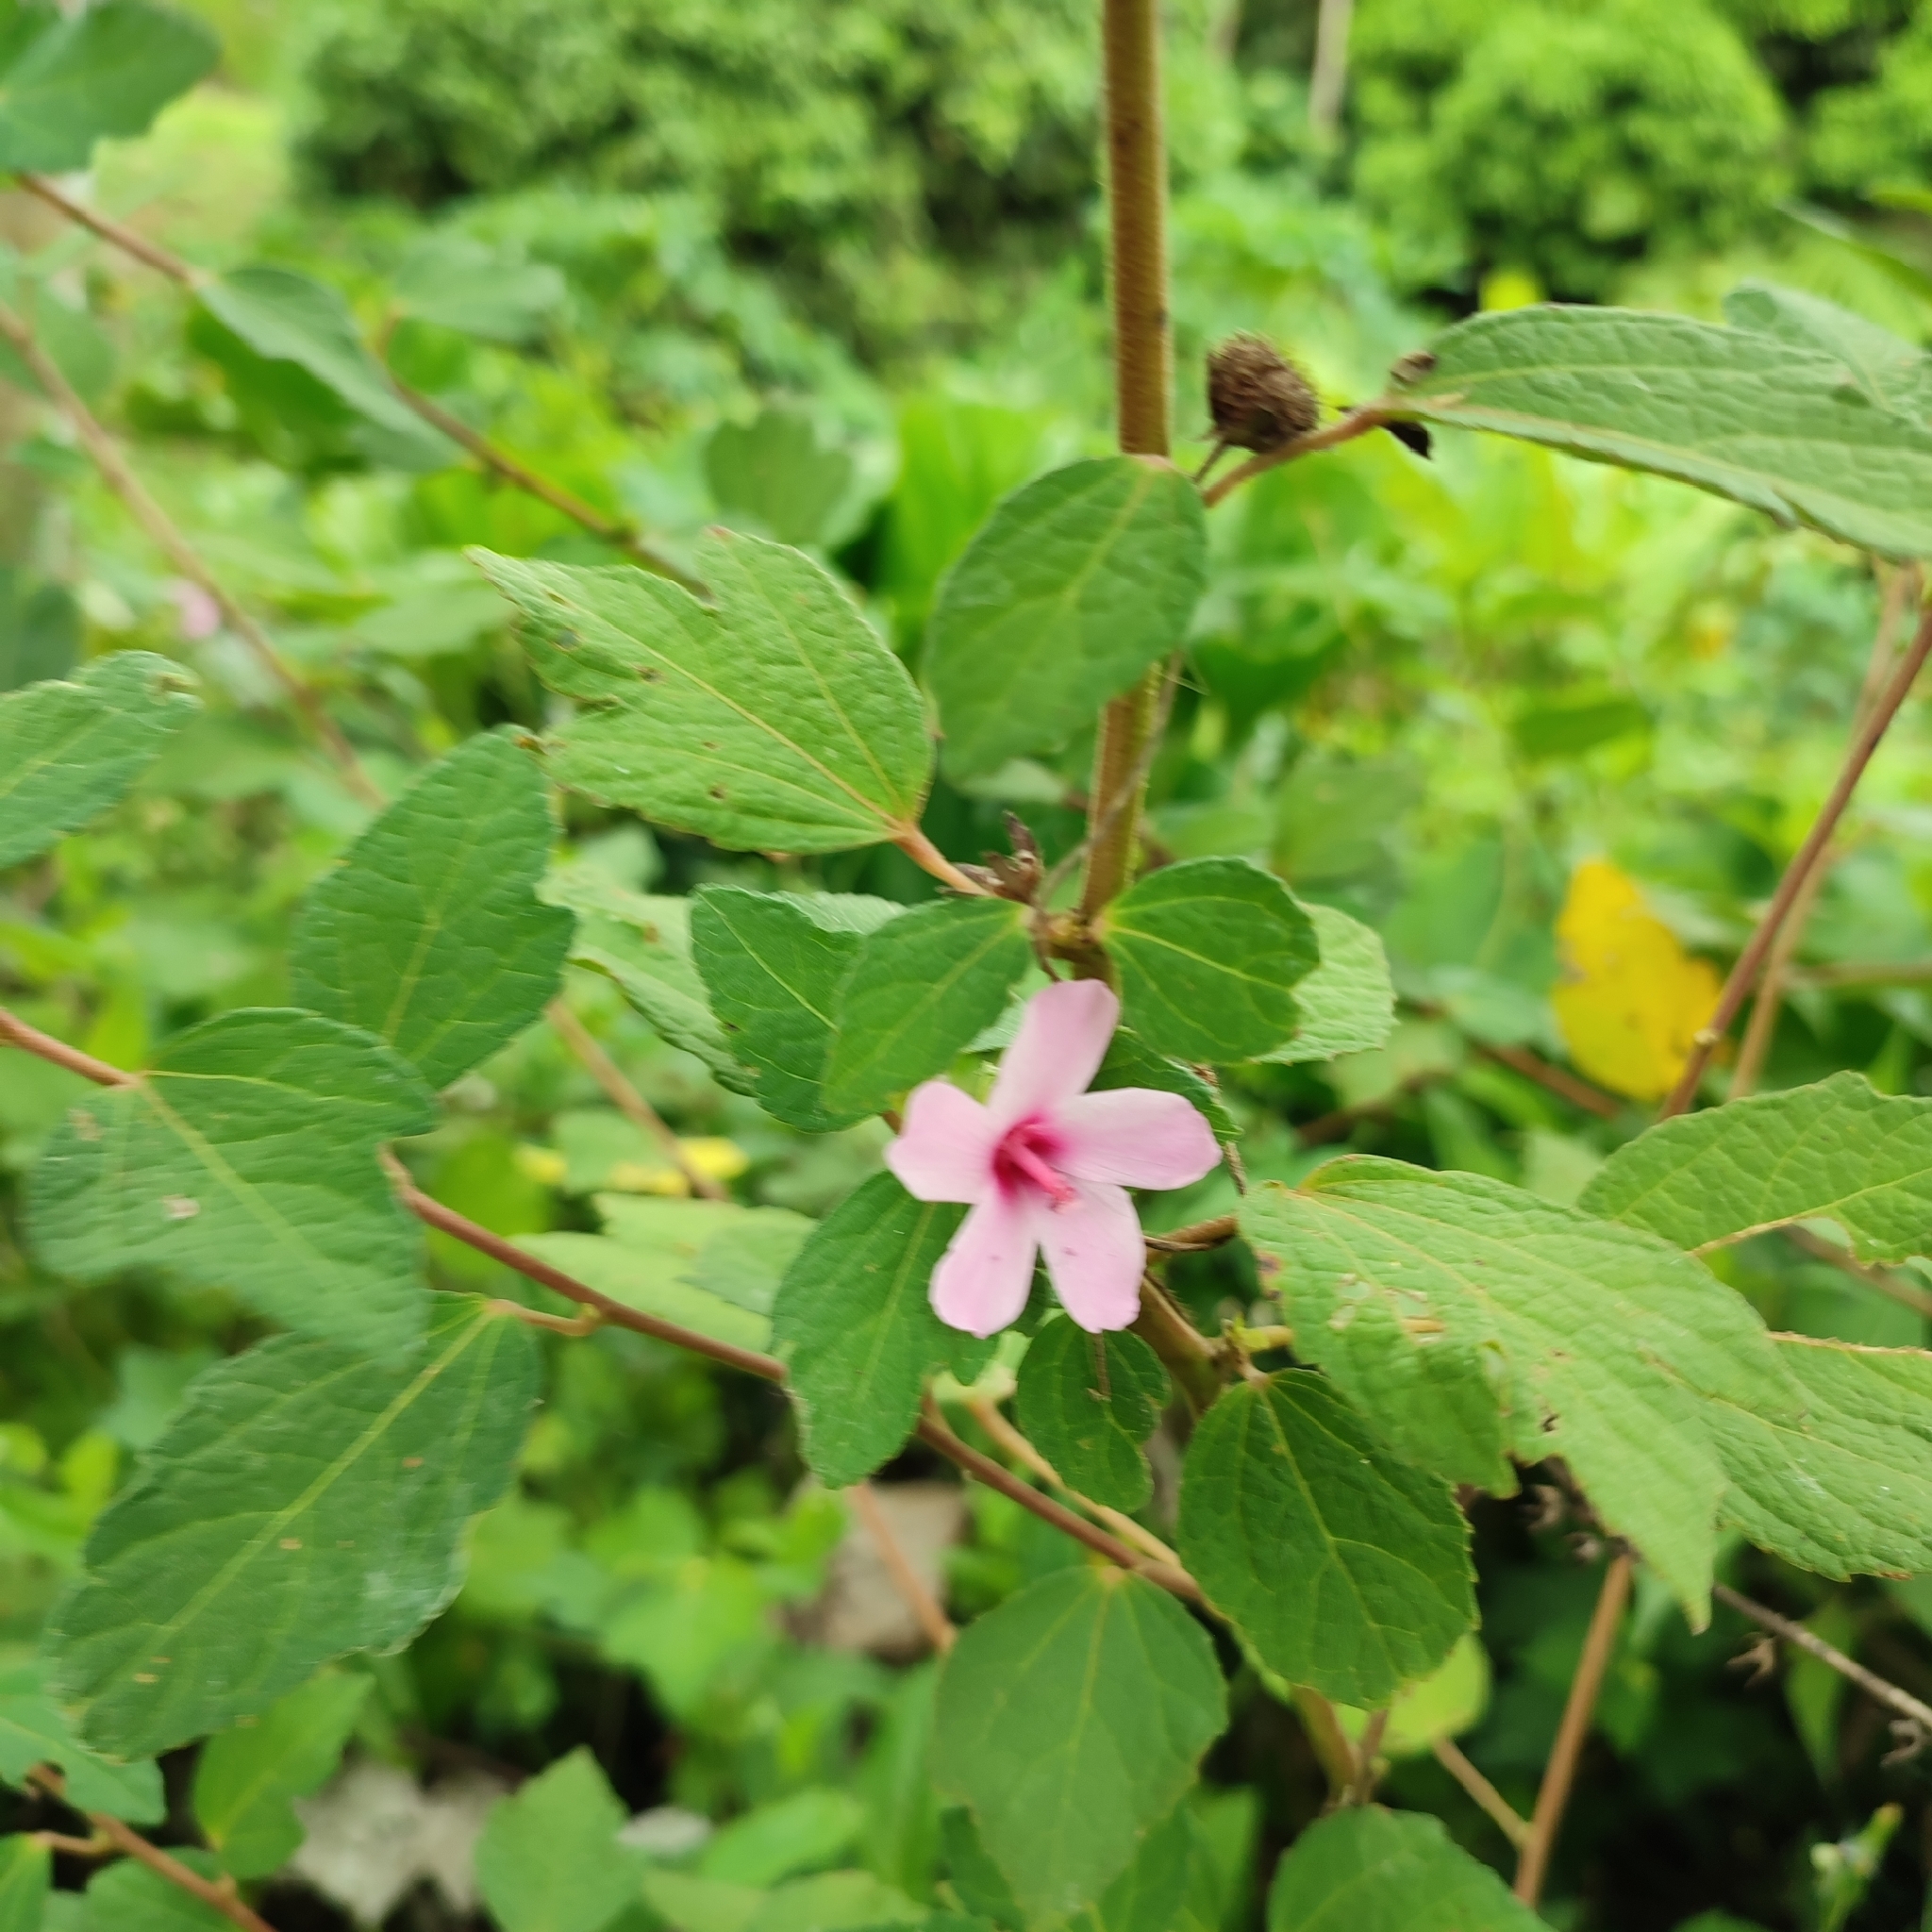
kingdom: Plantae
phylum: Tracheophyta
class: Magnoliopsida
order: Malvales
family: Malvaceae
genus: Urena
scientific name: Urena lobata
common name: Caesarweed
